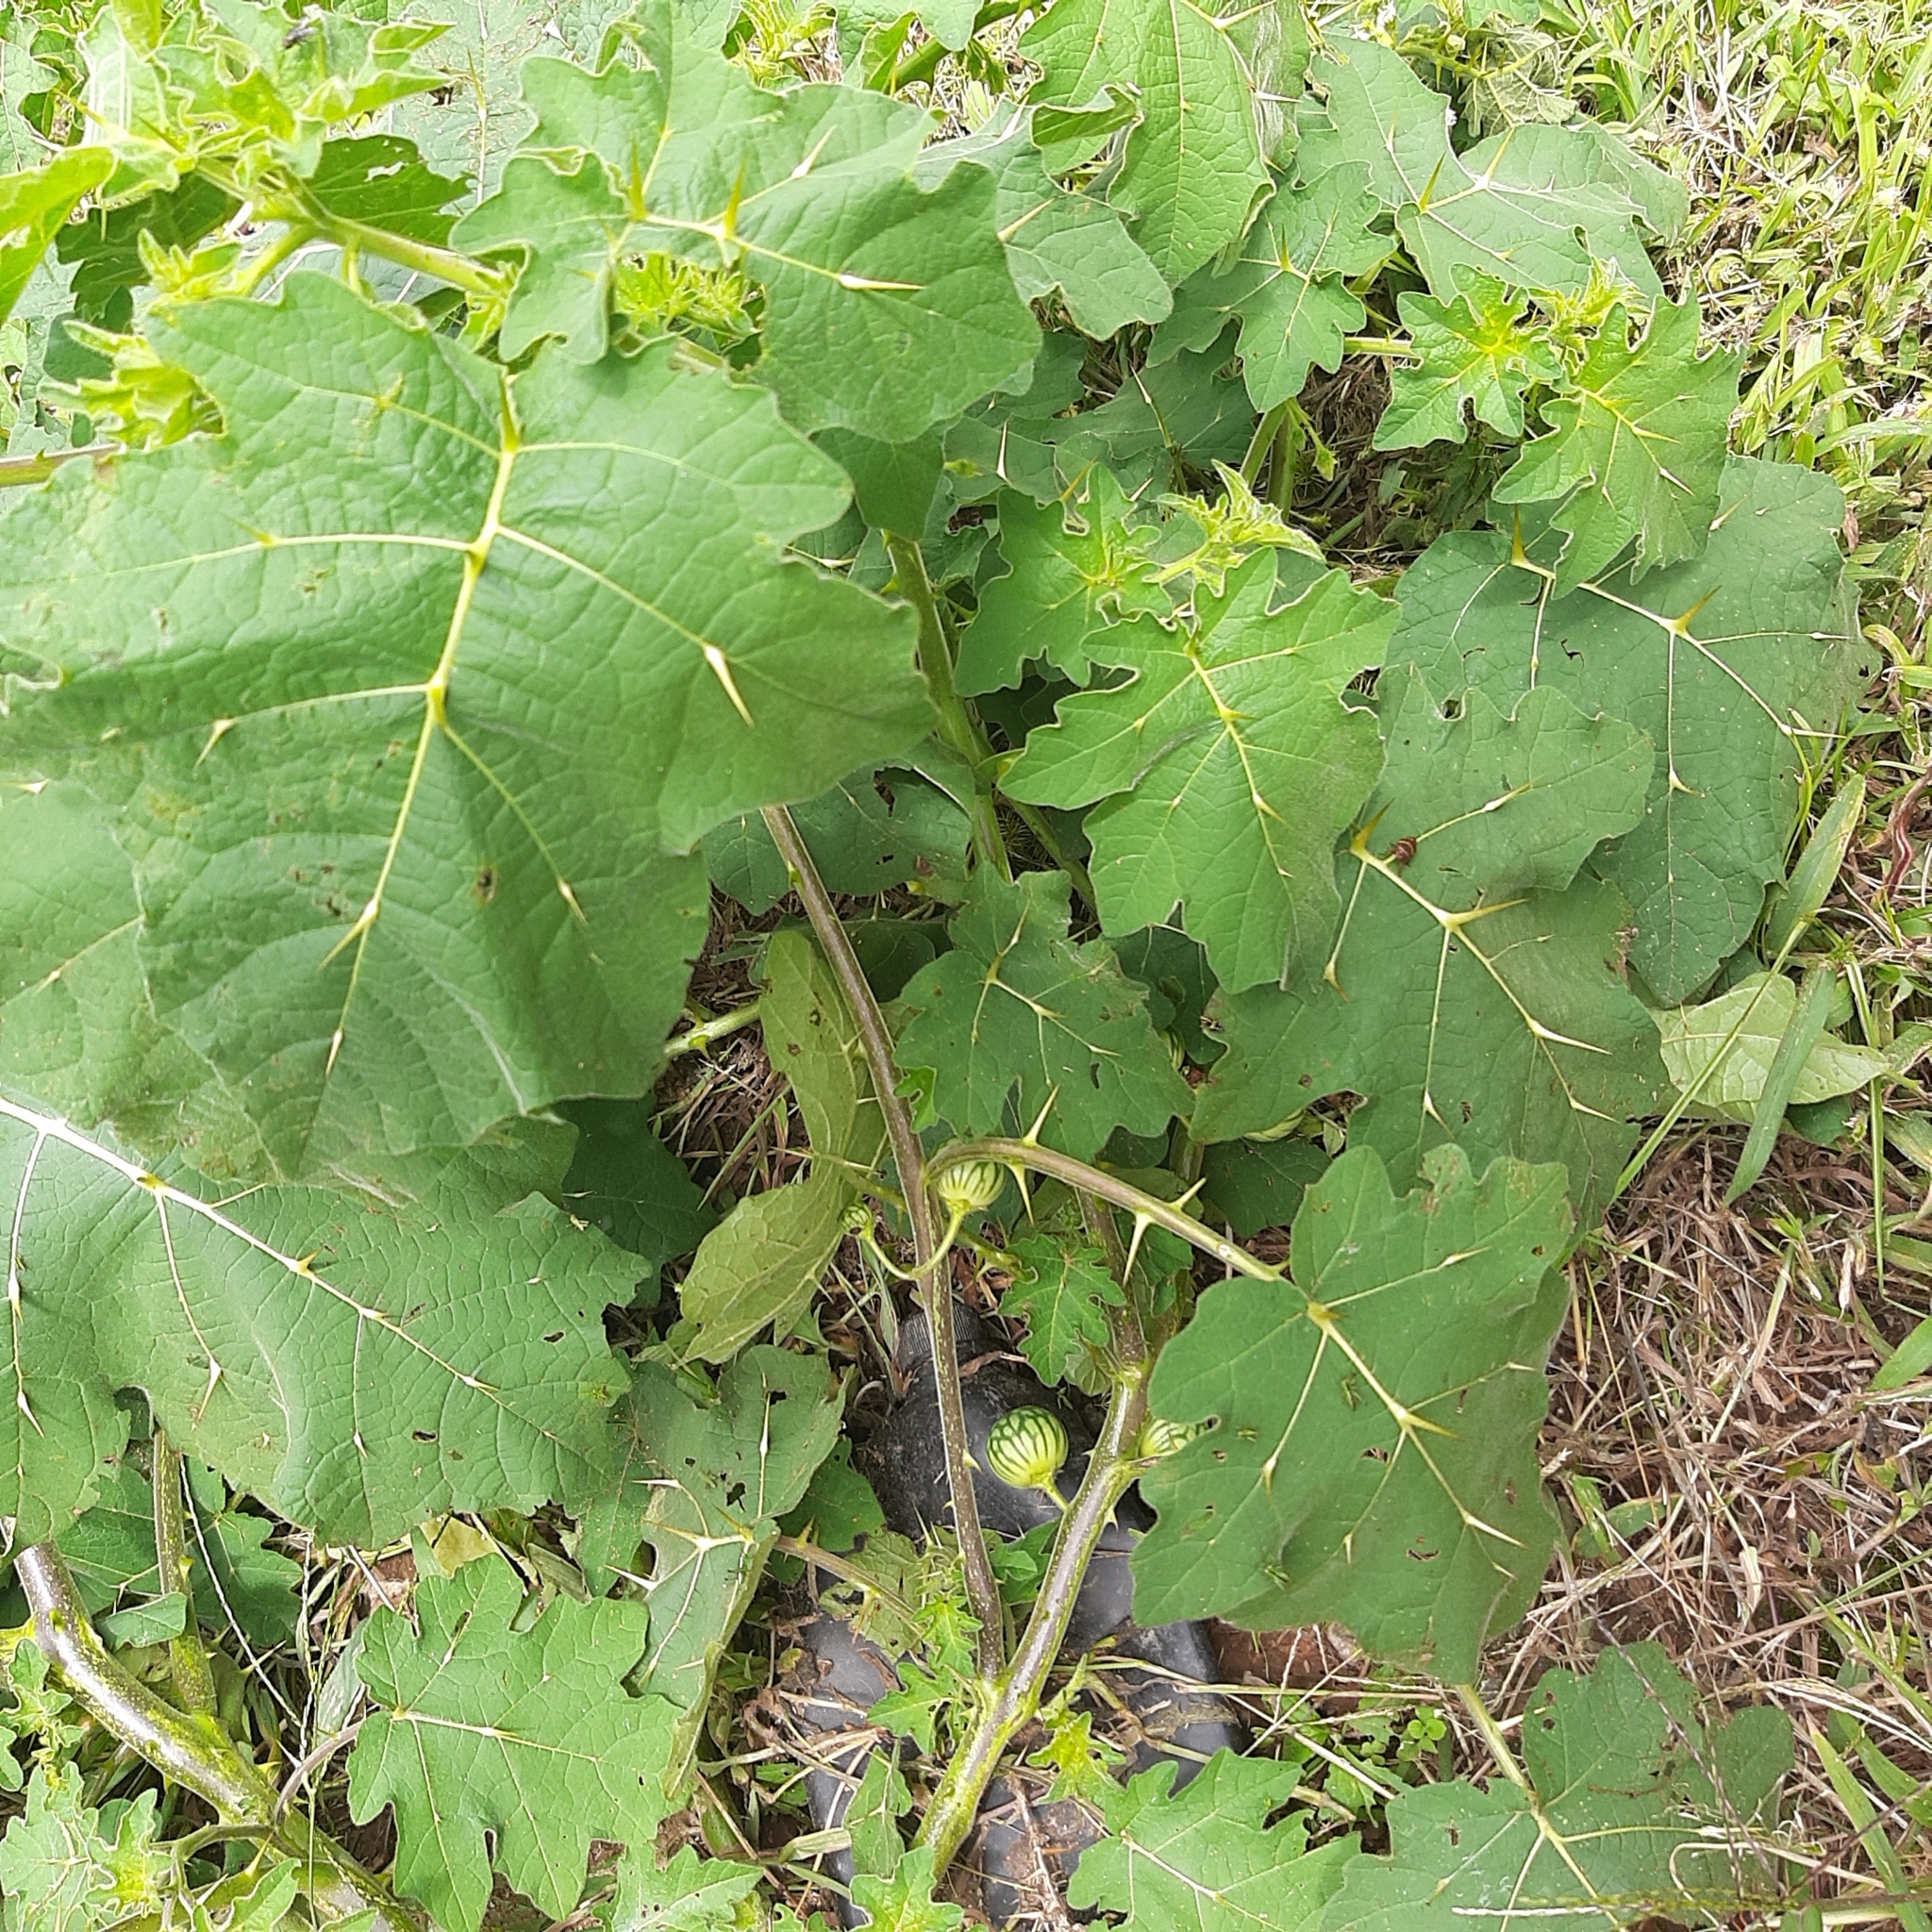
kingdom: Plantae
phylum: Tracheophyta
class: Magnoliopsida
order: Solanales
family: Solanaceae
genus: Solanum
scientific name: Solanum viarum
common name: Tropical soda apple
